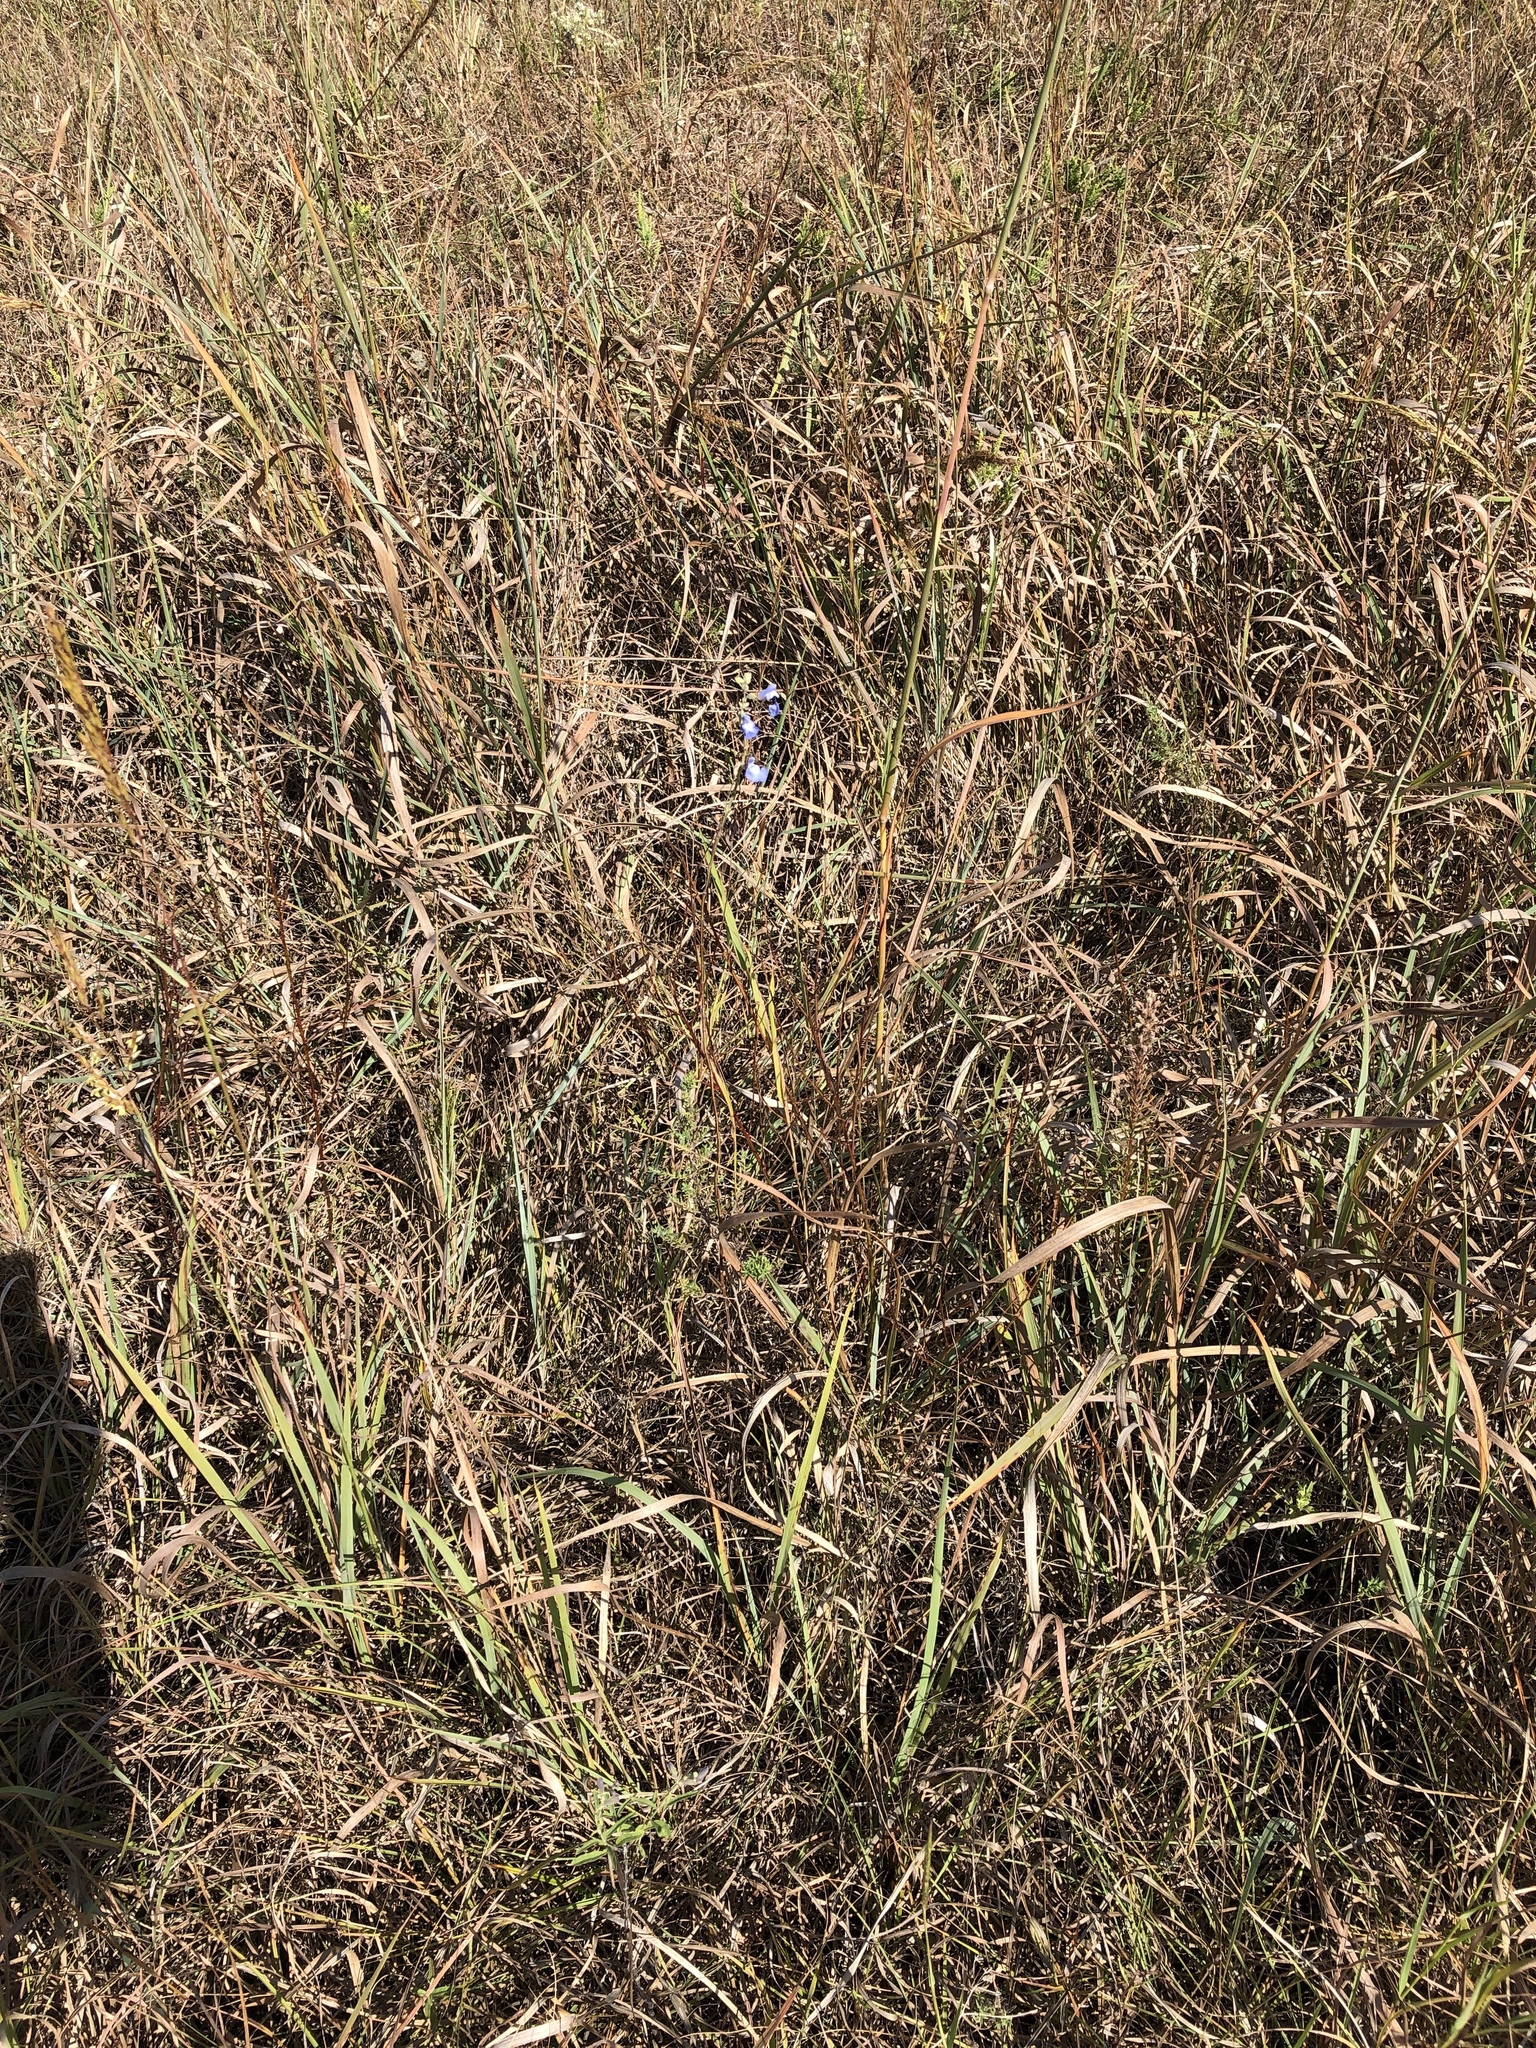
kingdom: Plantae
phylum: Tracheophyta
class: Magnoliopsida
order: Lamiales
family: Lamiaceae
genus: Salvia
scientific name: Salvia azurea
